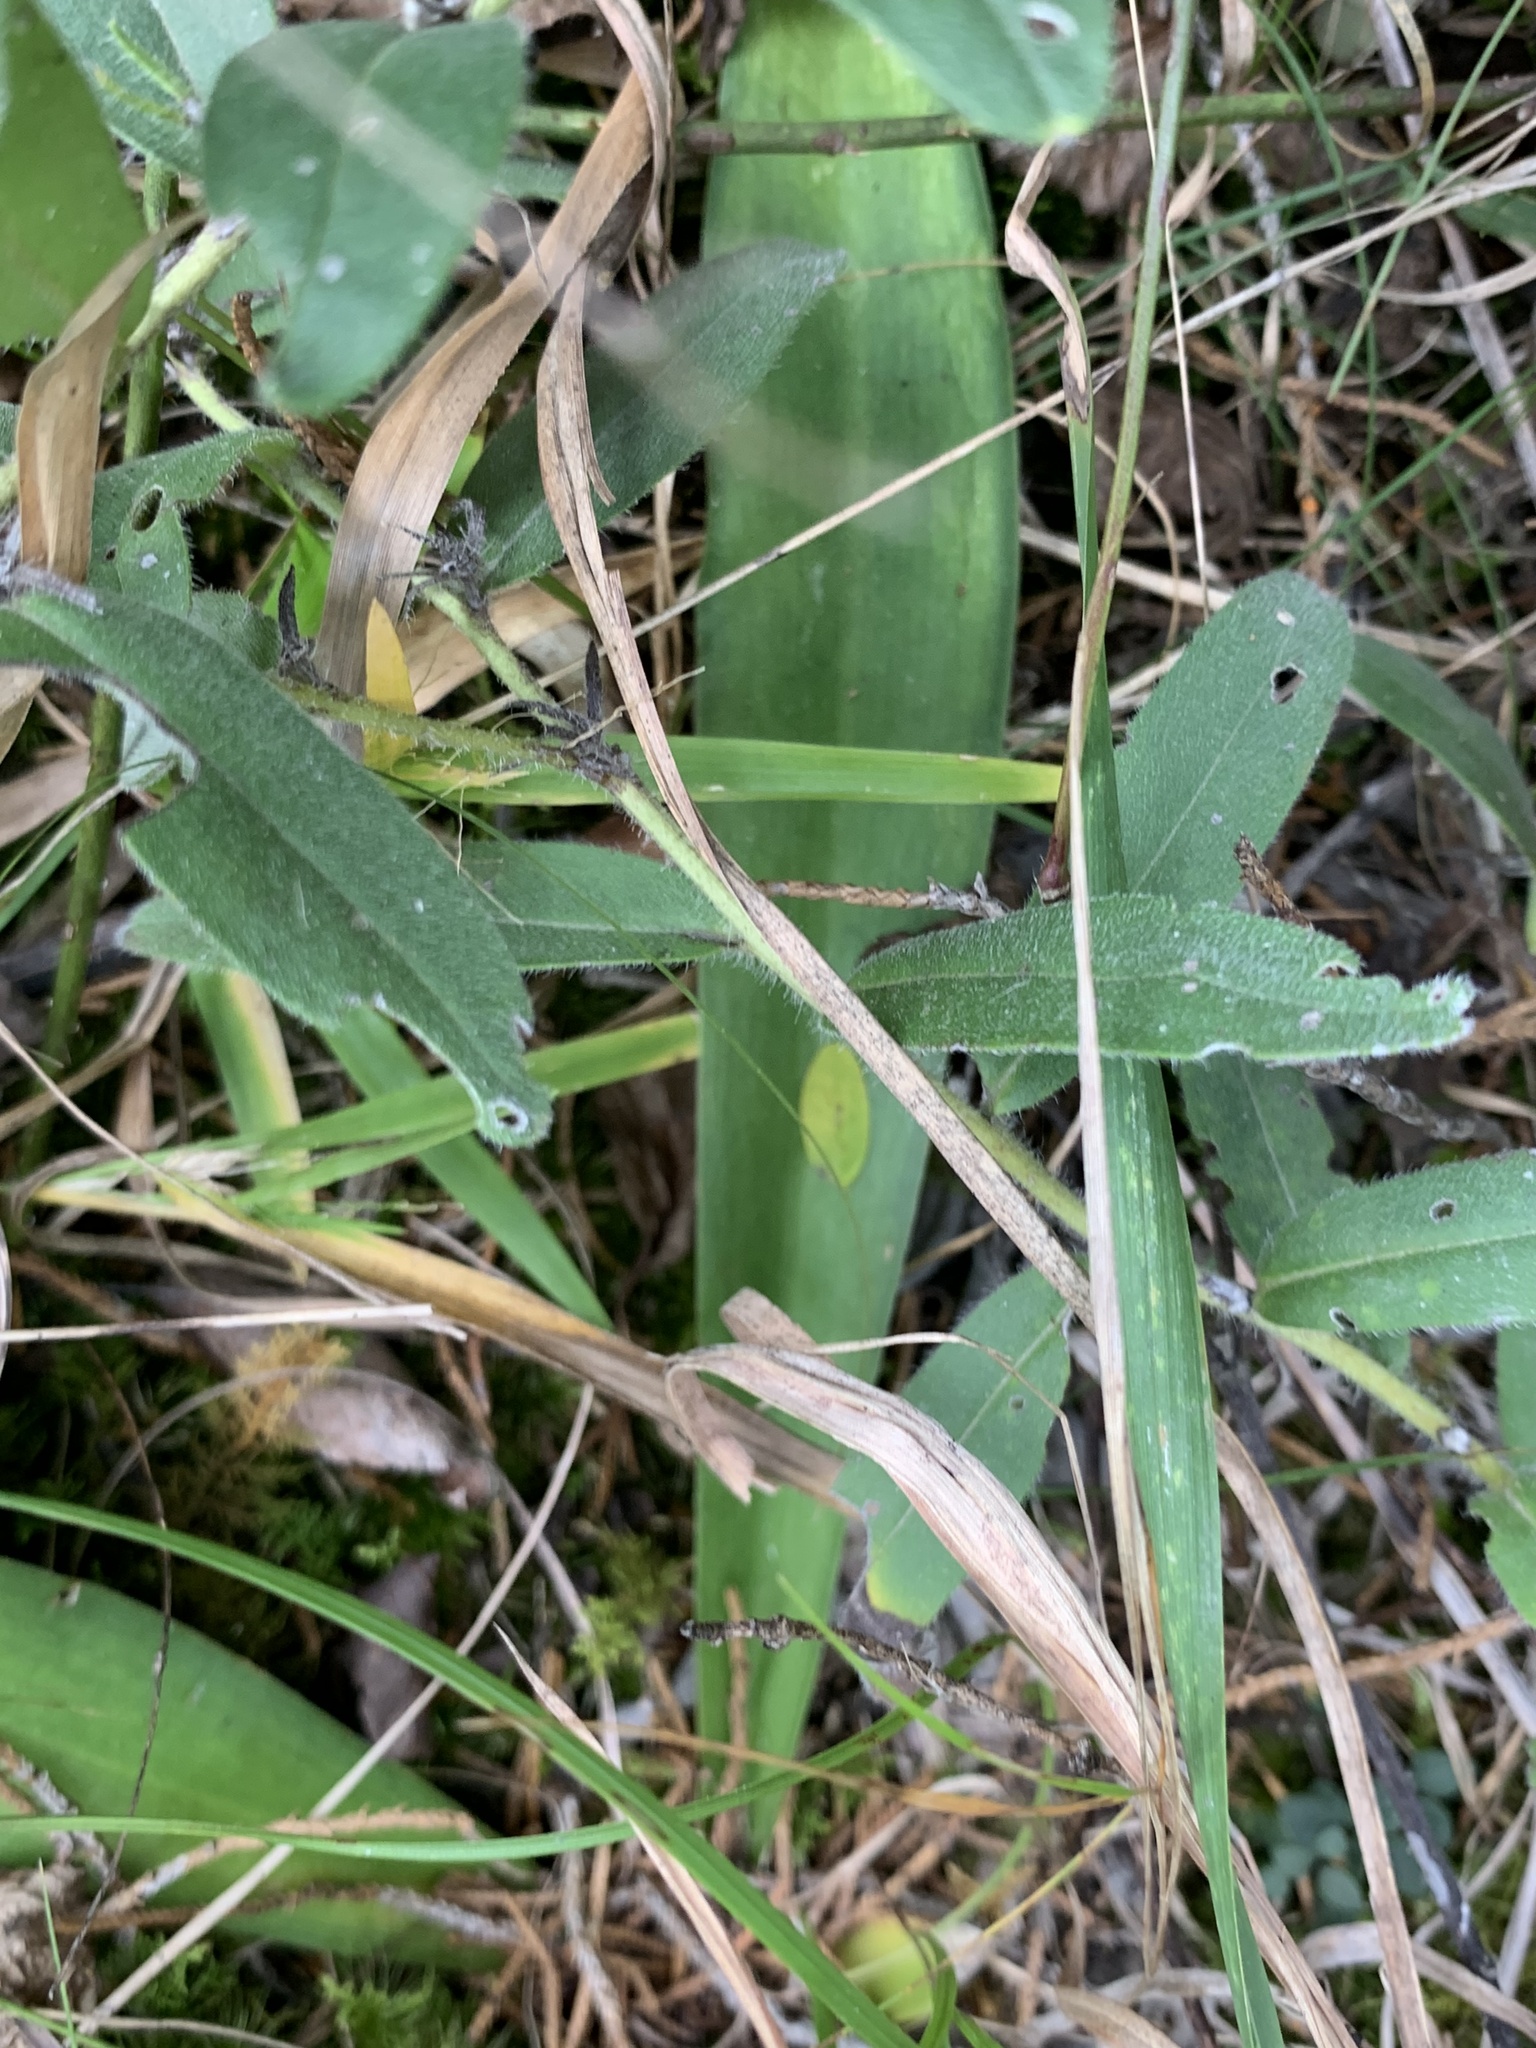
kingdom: Plantae
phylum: Tracheophyta
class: Liliopsida
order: Asparagales
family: Asparagaceae
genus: Agave
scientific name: Agave virginica
